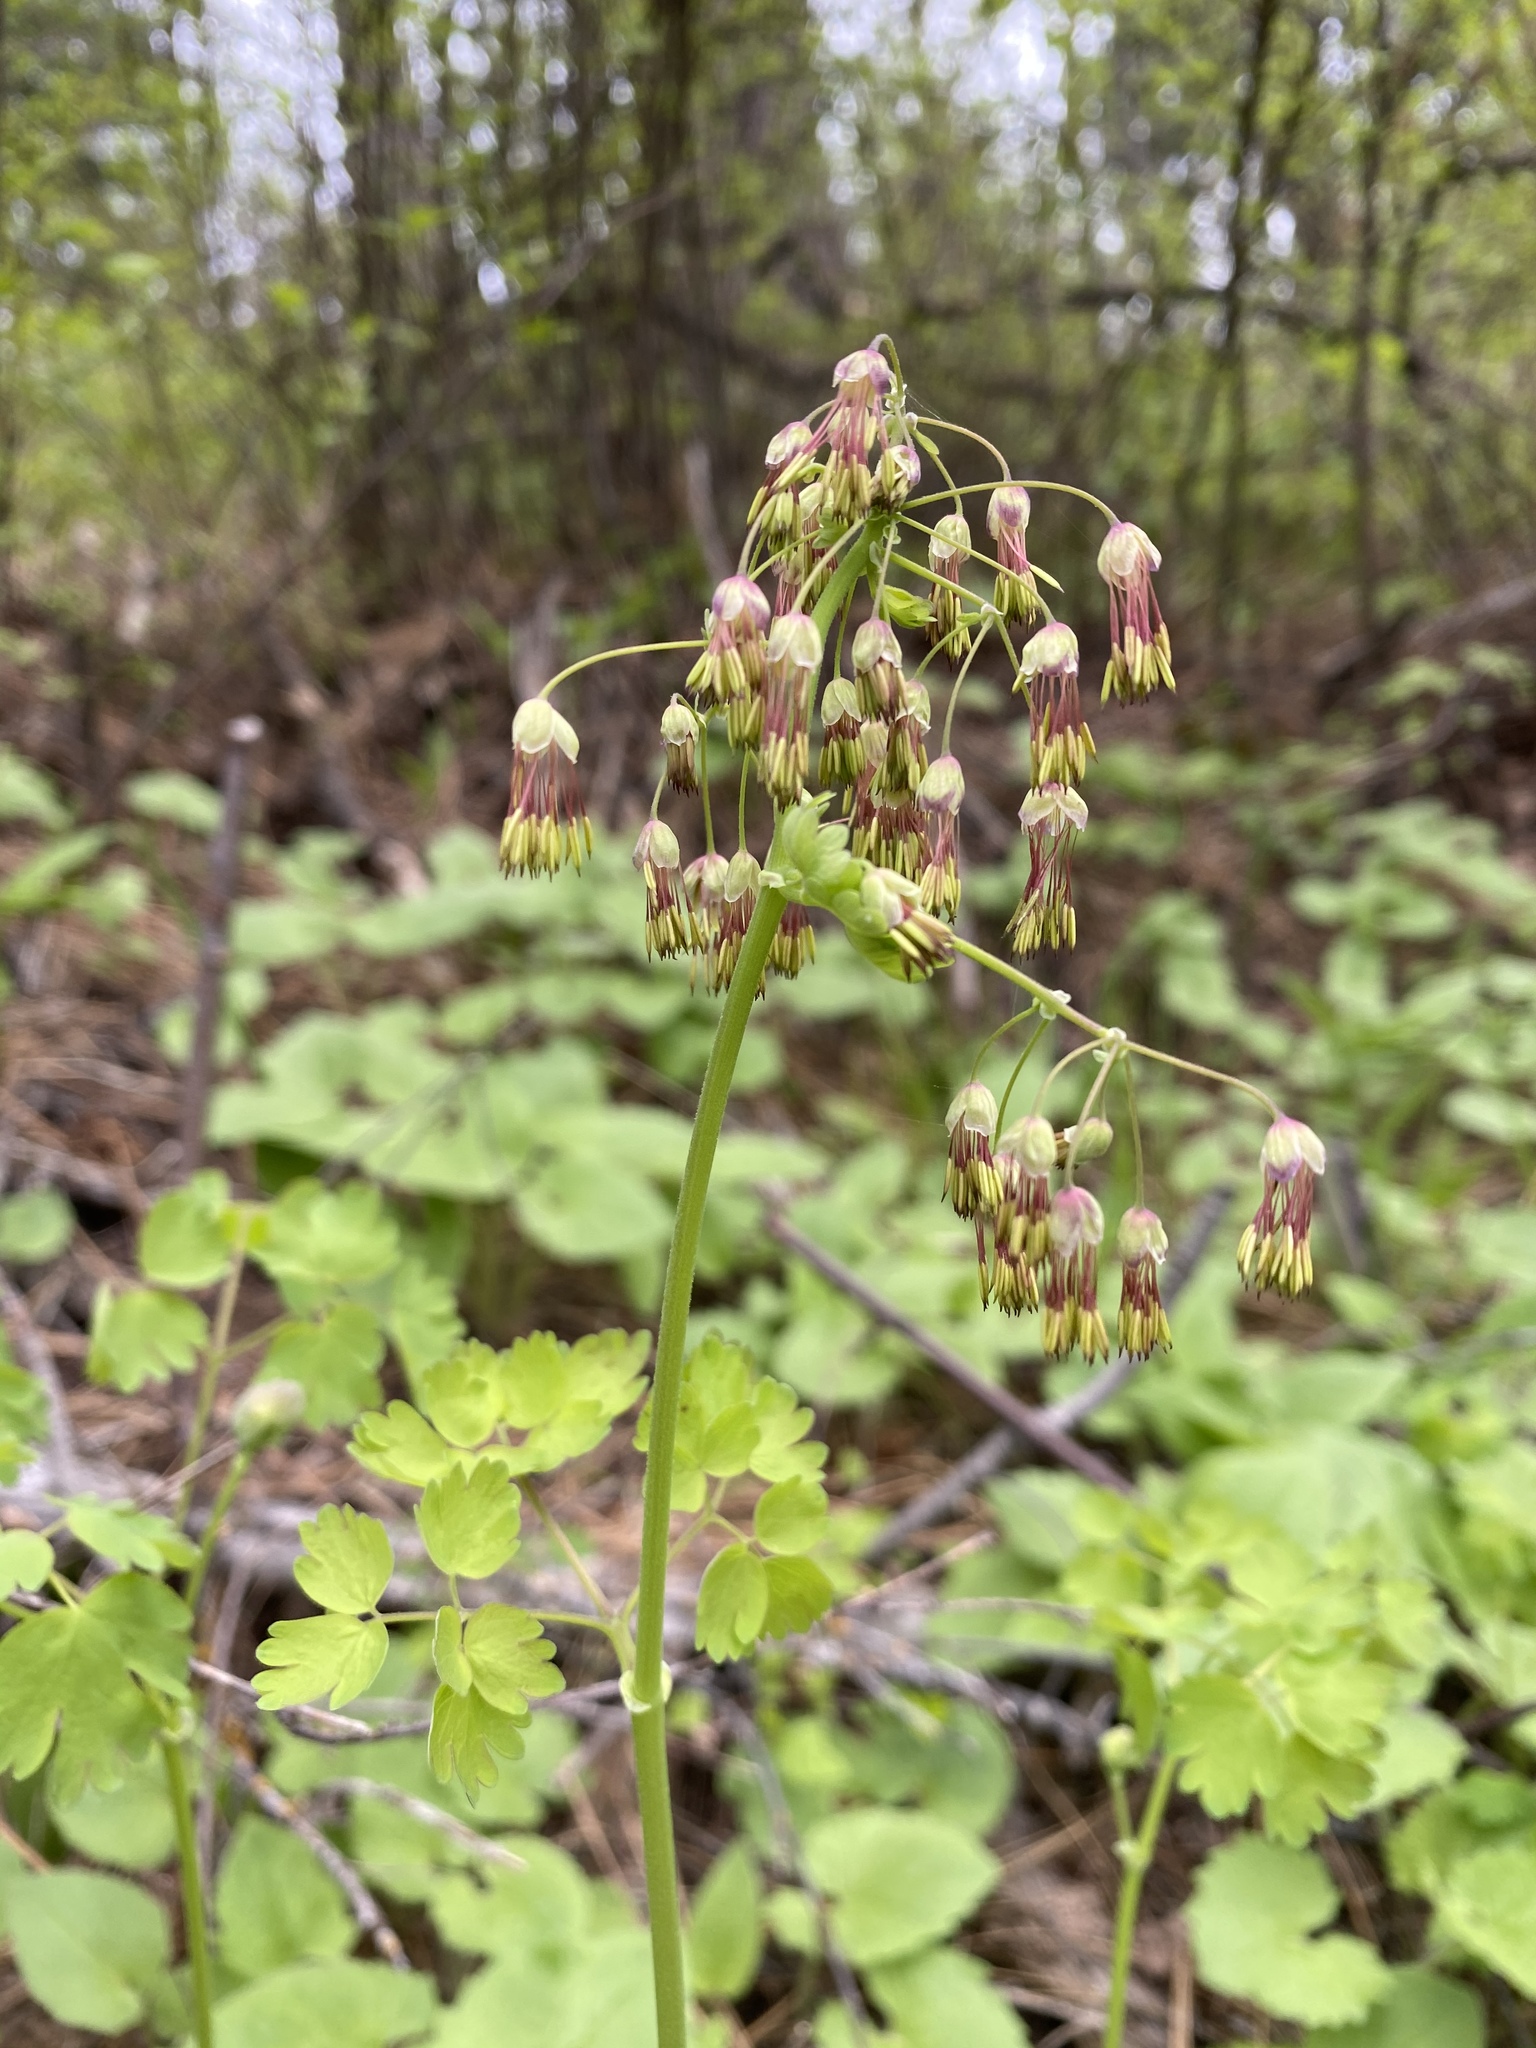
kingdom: Plantae
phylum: Tracheophyta
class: Magnoliopsida
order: Ranunculales
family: Ranunculaceae
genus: Thalictrum
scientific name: Thalictrum occidentale
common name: Western meadow-rue
